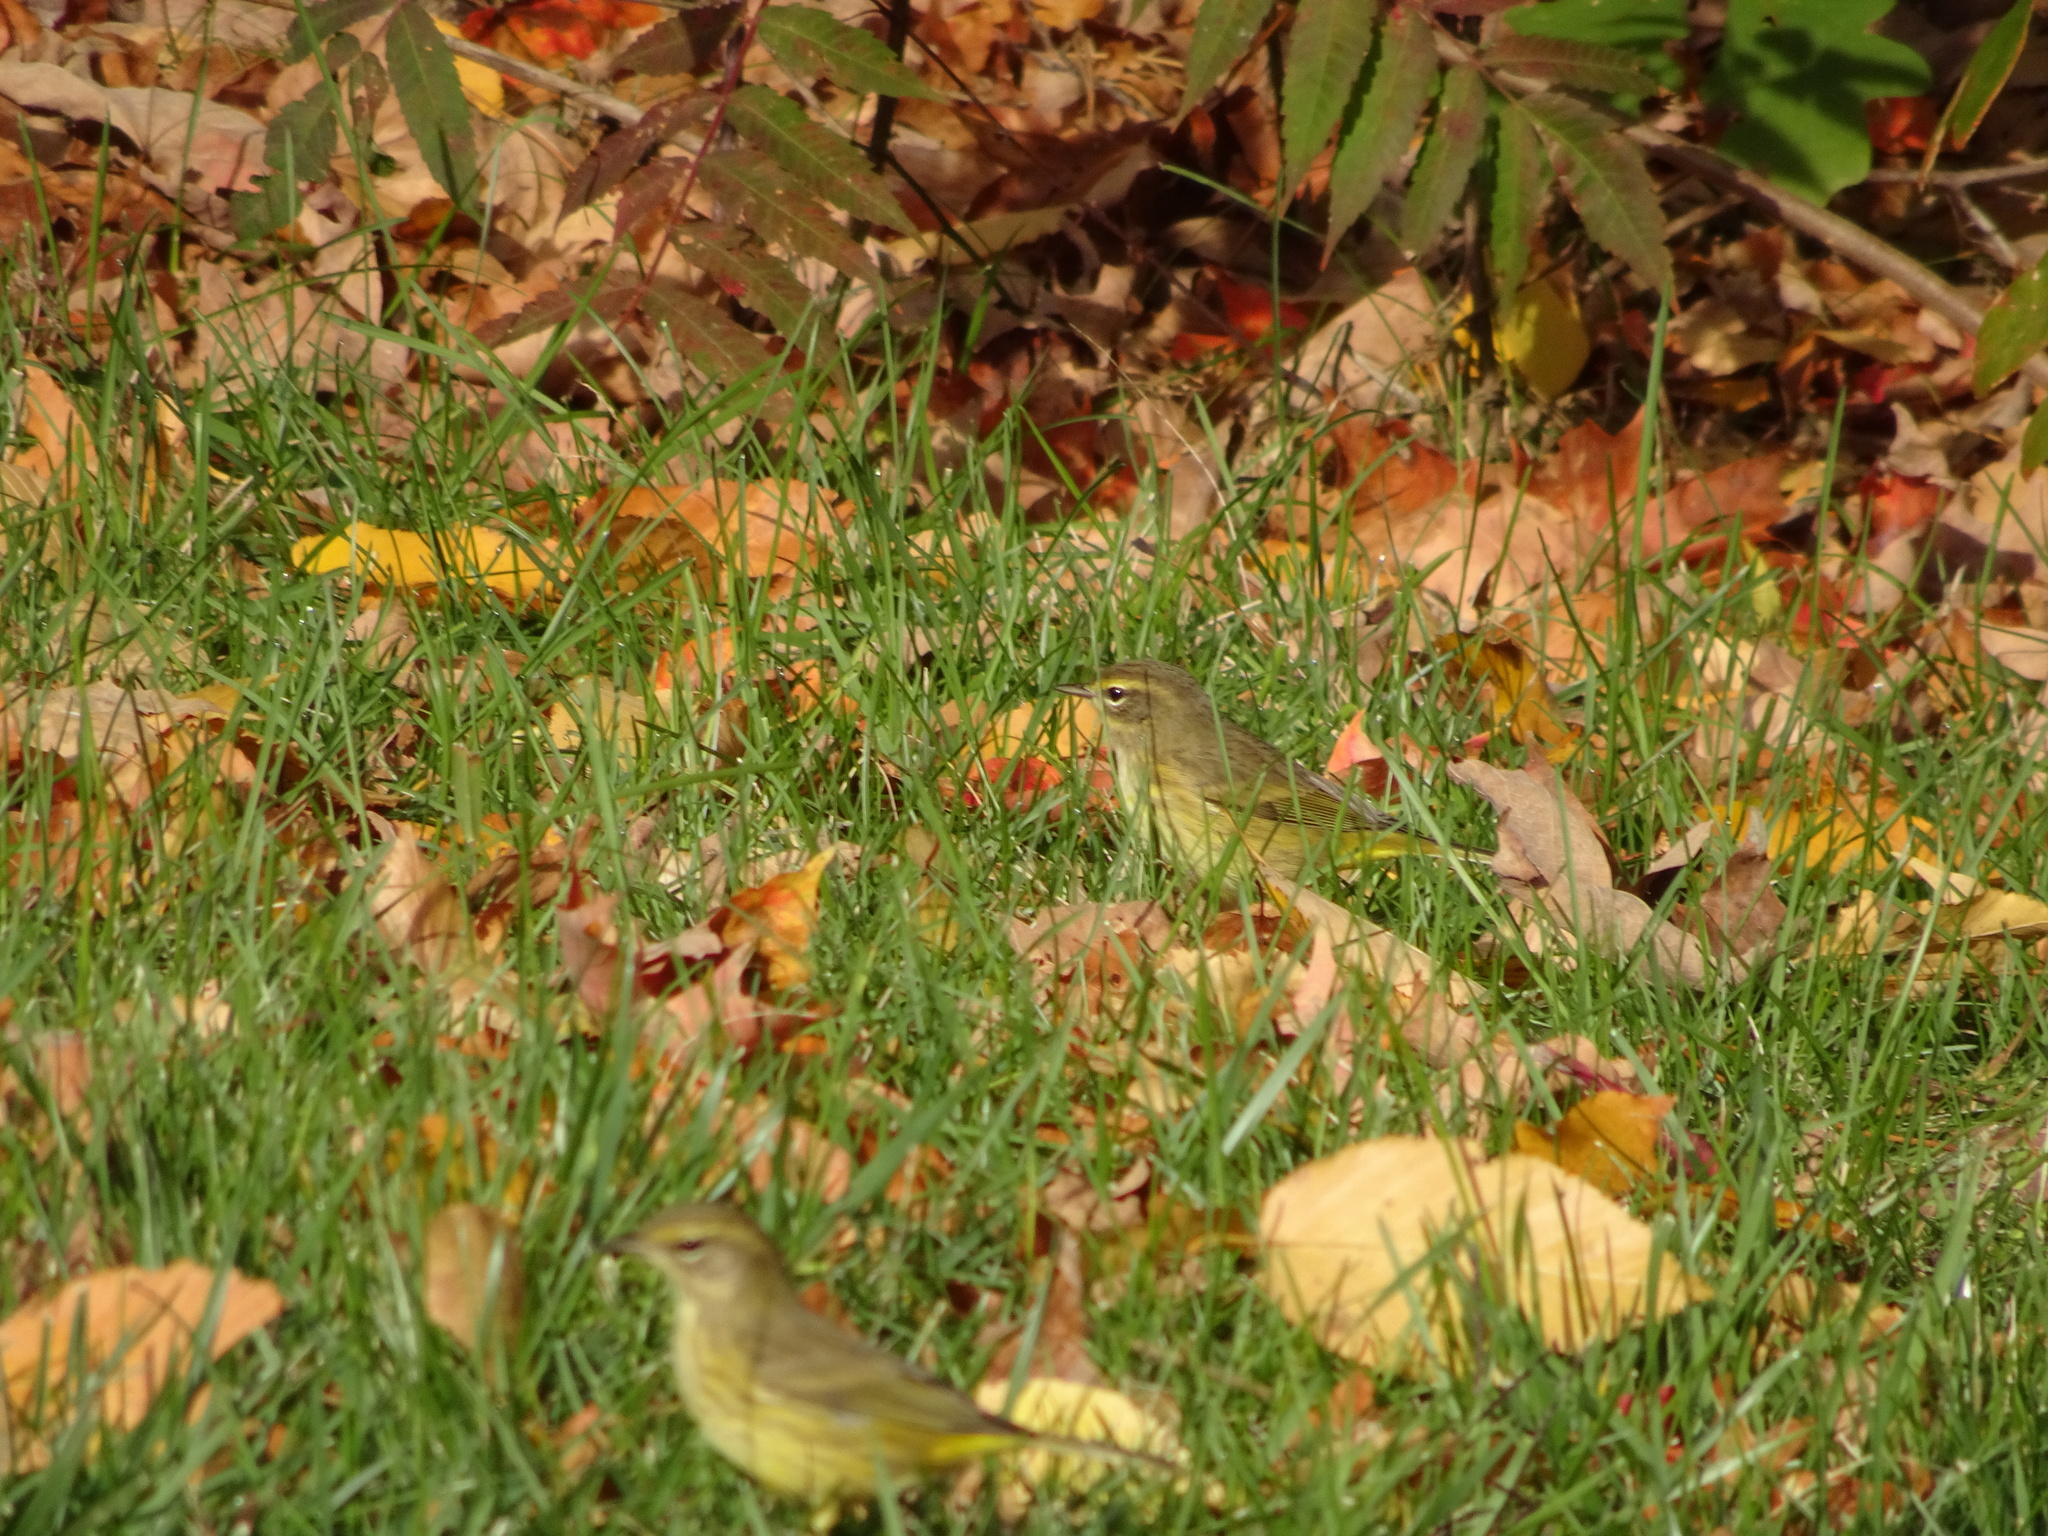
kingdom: Animalia
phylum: Chordata
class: Aves
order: Passeriformes
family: Parulidae
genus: Setophaga
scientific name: Setophaga palmarum
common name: Palm warbler
